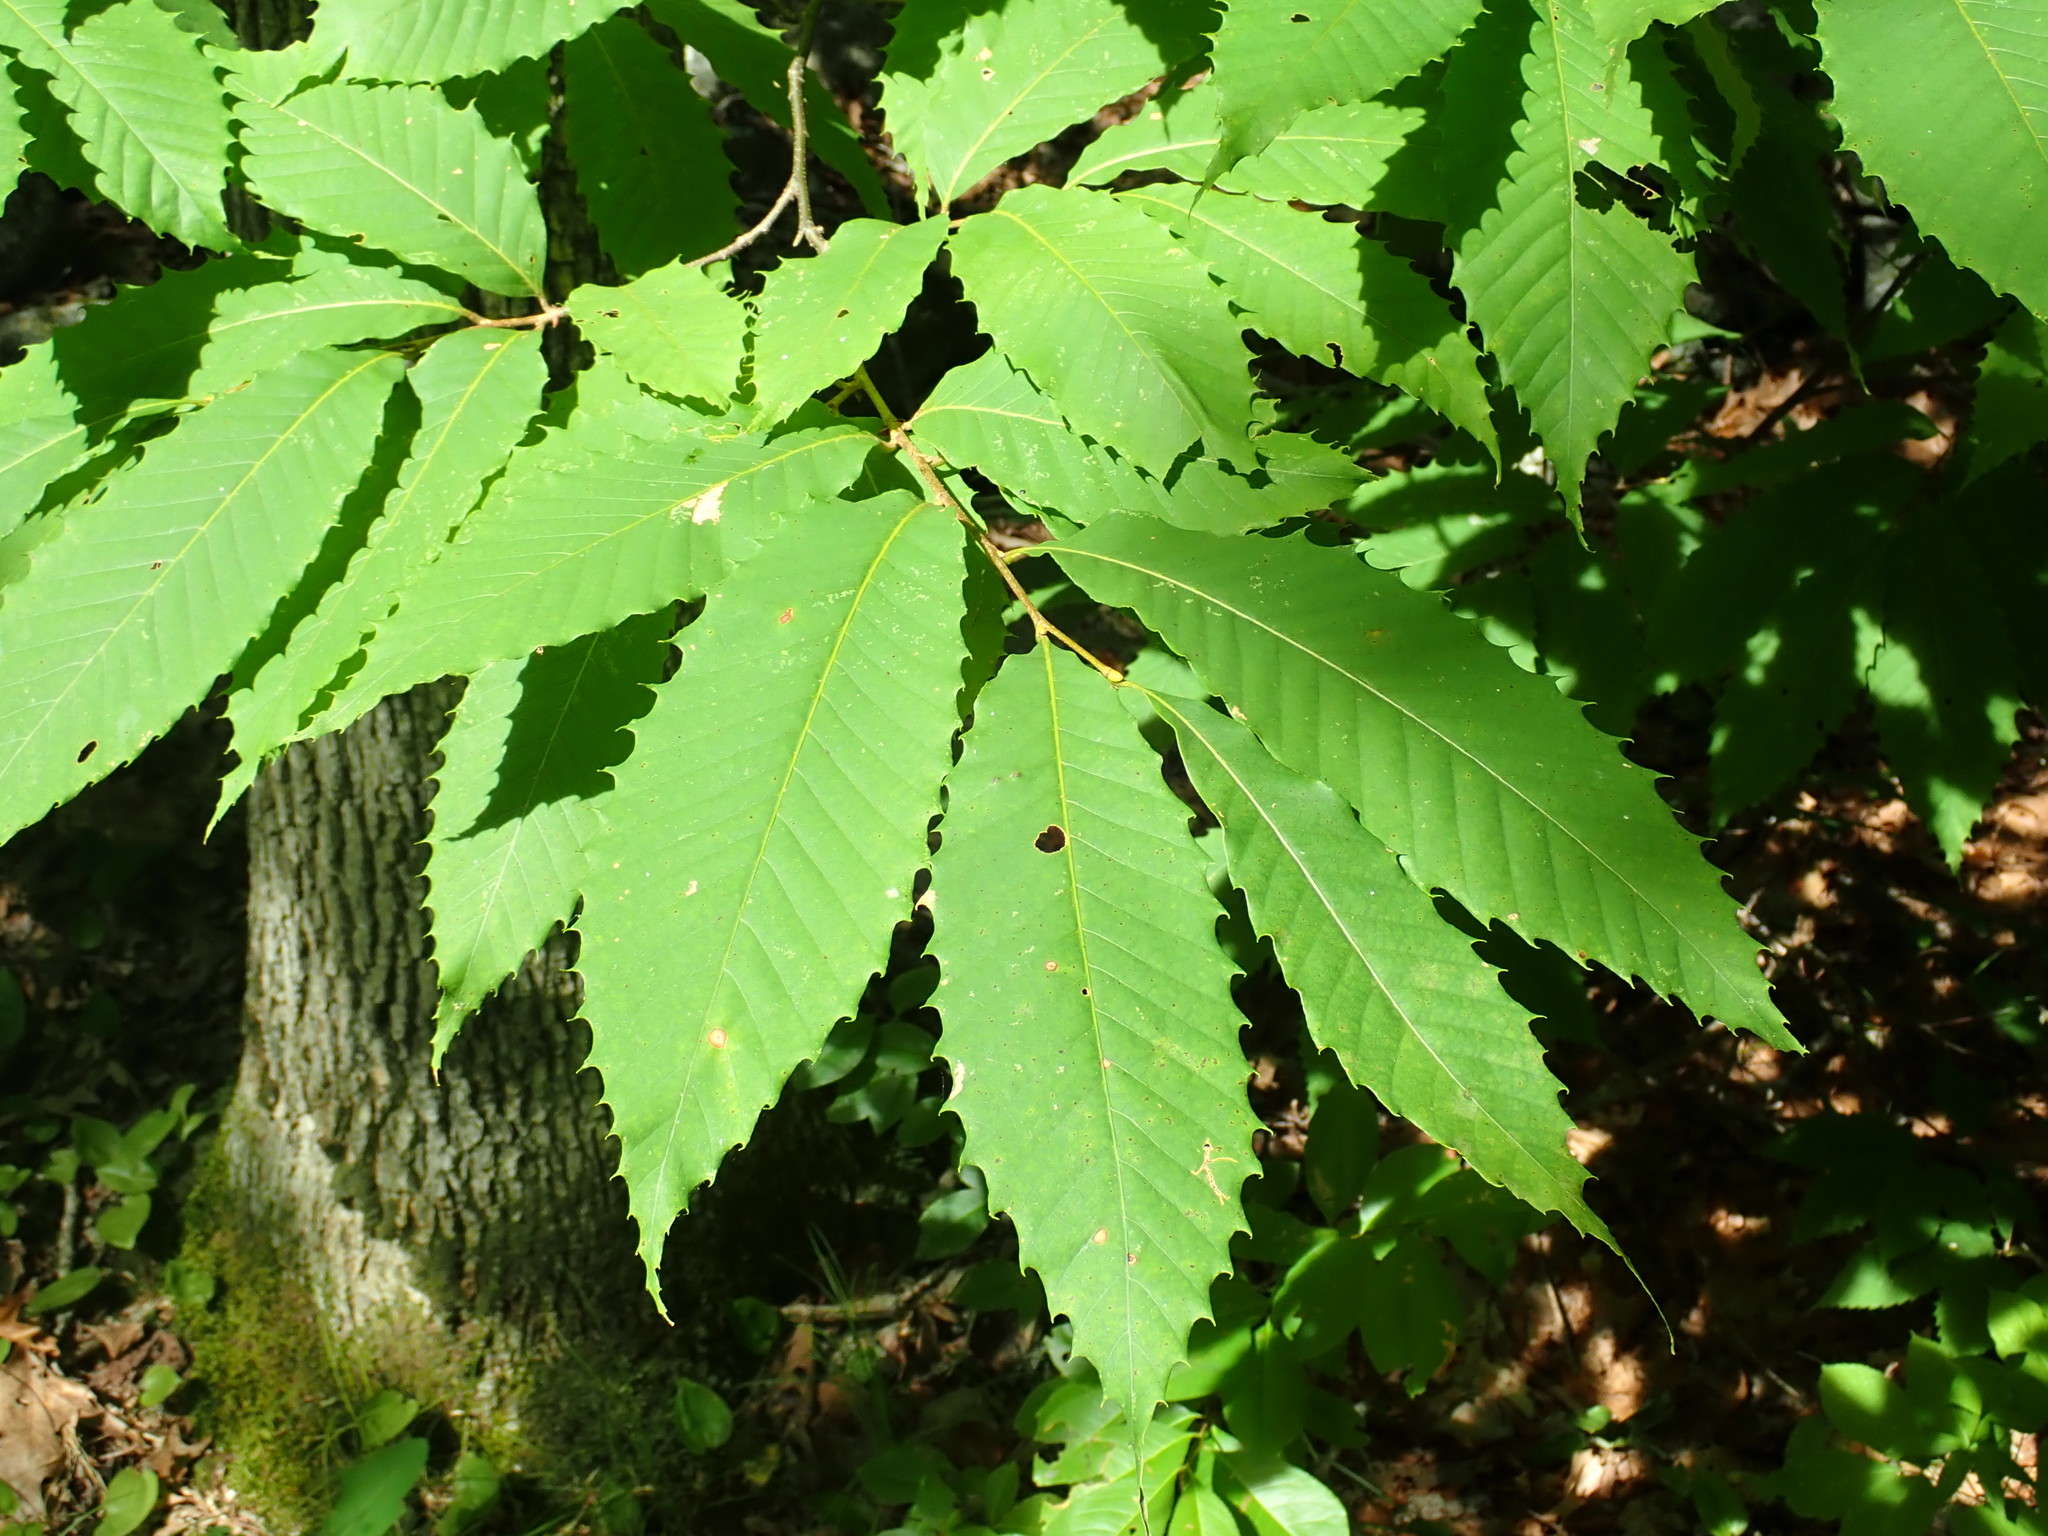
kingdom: Plantae
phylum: Tracheophyta
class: Magnoliopsida
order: Fagales
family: Fagaceae
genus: Castanea
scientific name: Castanea dentata
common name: American chestnut
